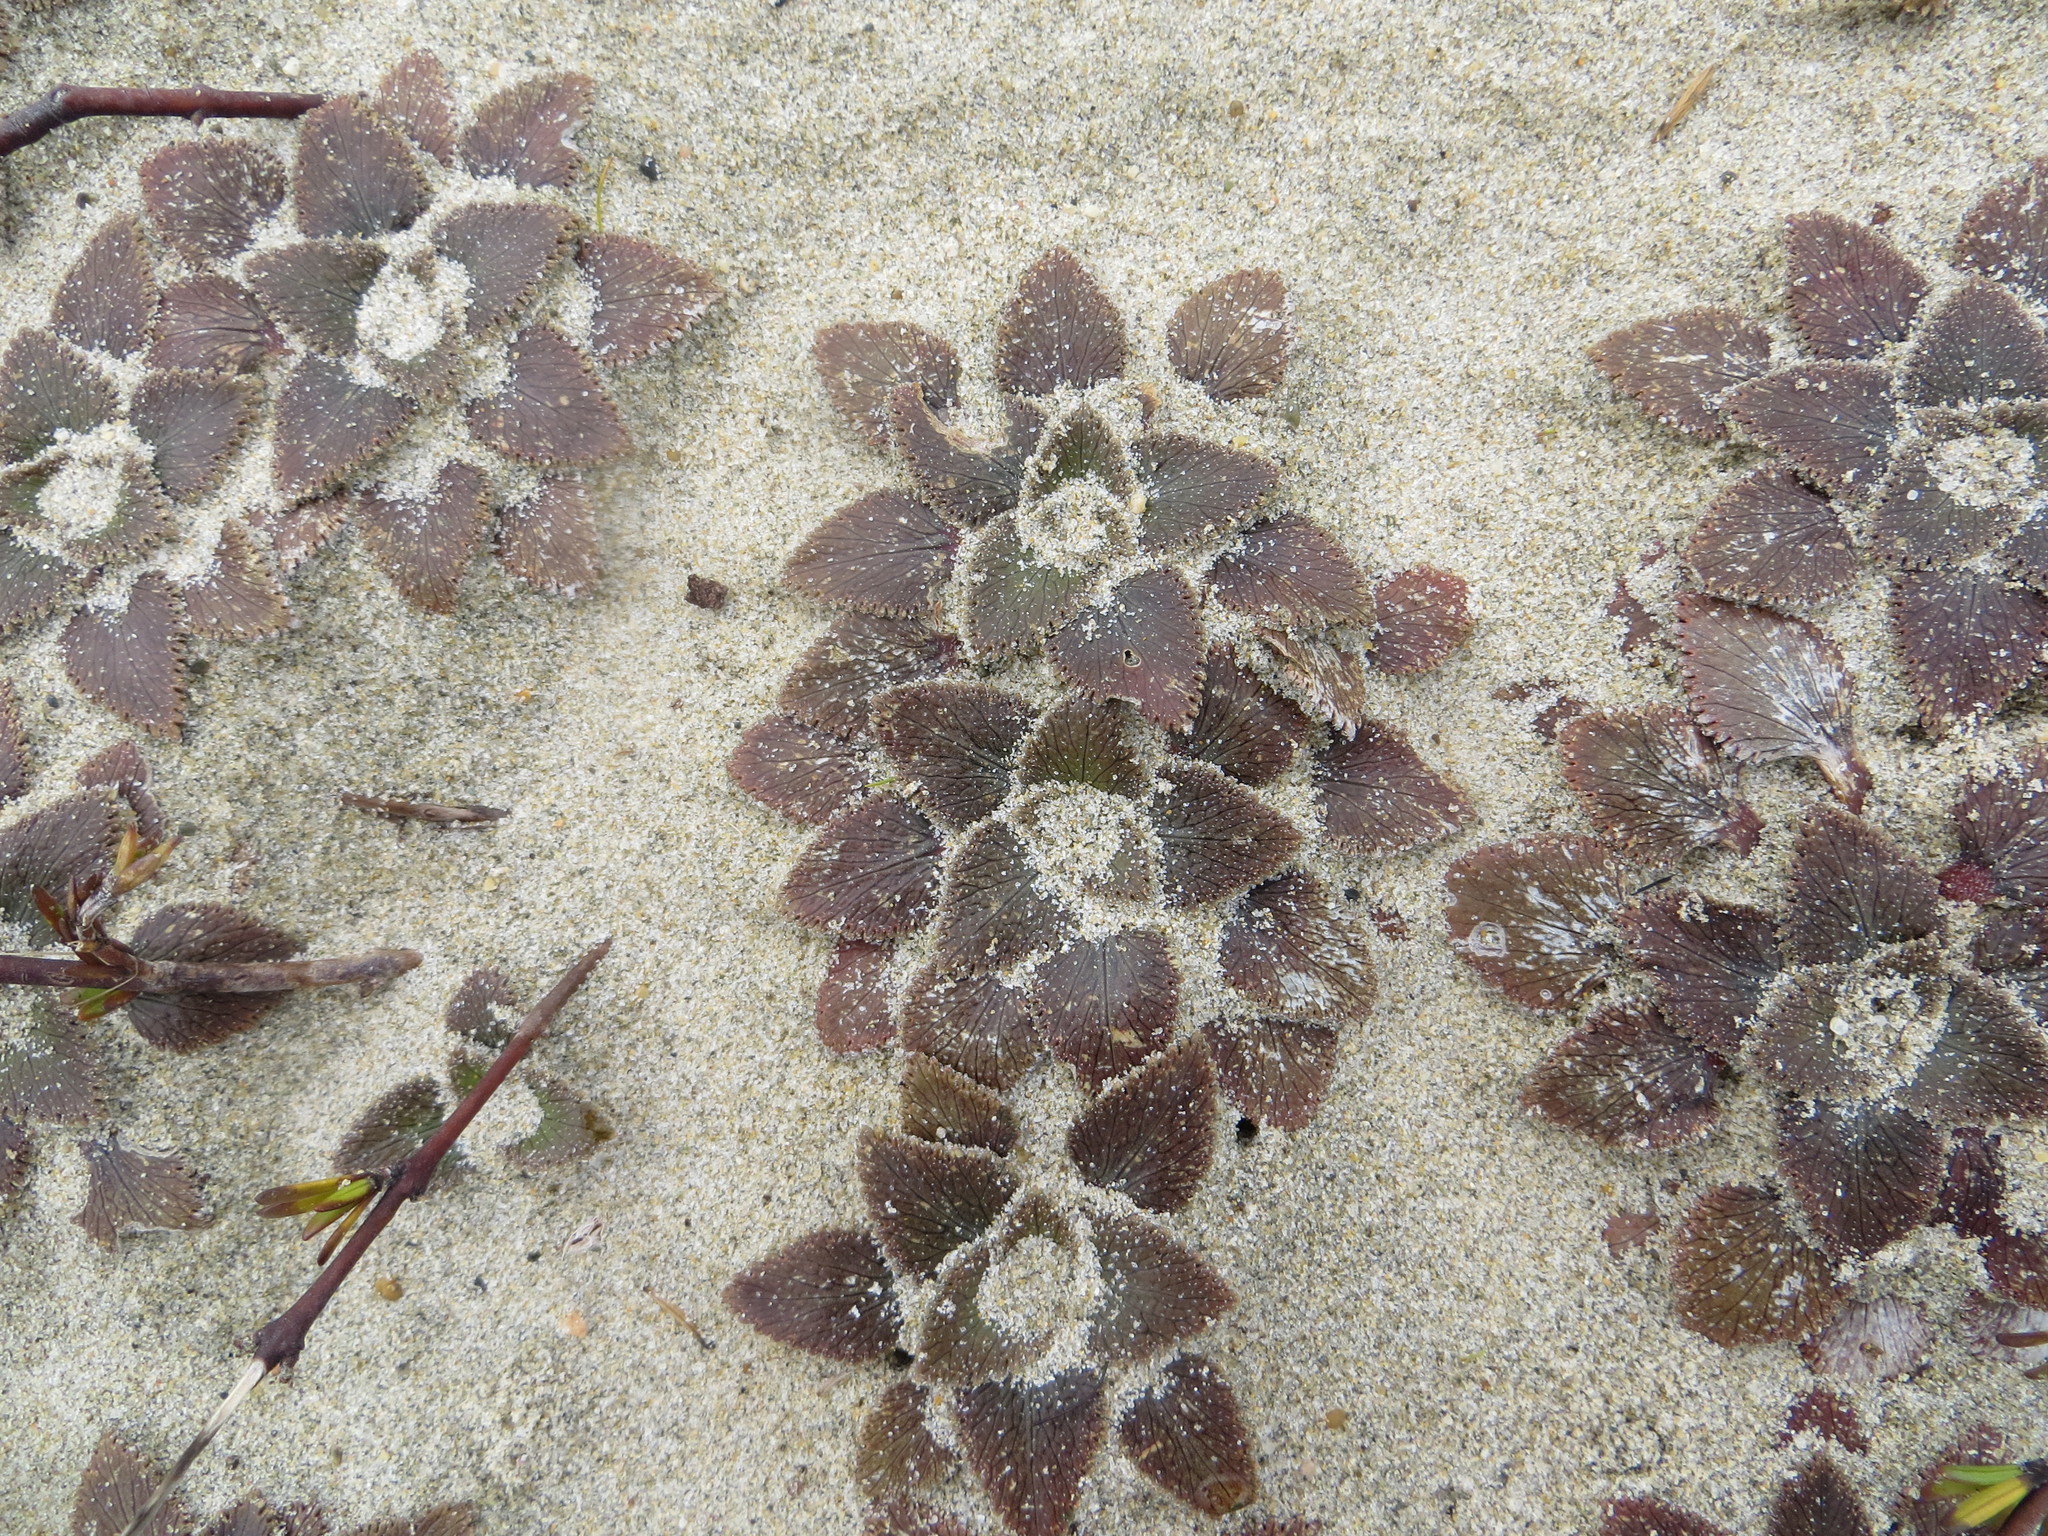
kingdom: Plantae
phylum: Tracheophyta
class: Magnoliopsida
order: Gunnerales
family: Gunneraceae
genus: Gunnera
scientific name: Gunnera hamiltonii
